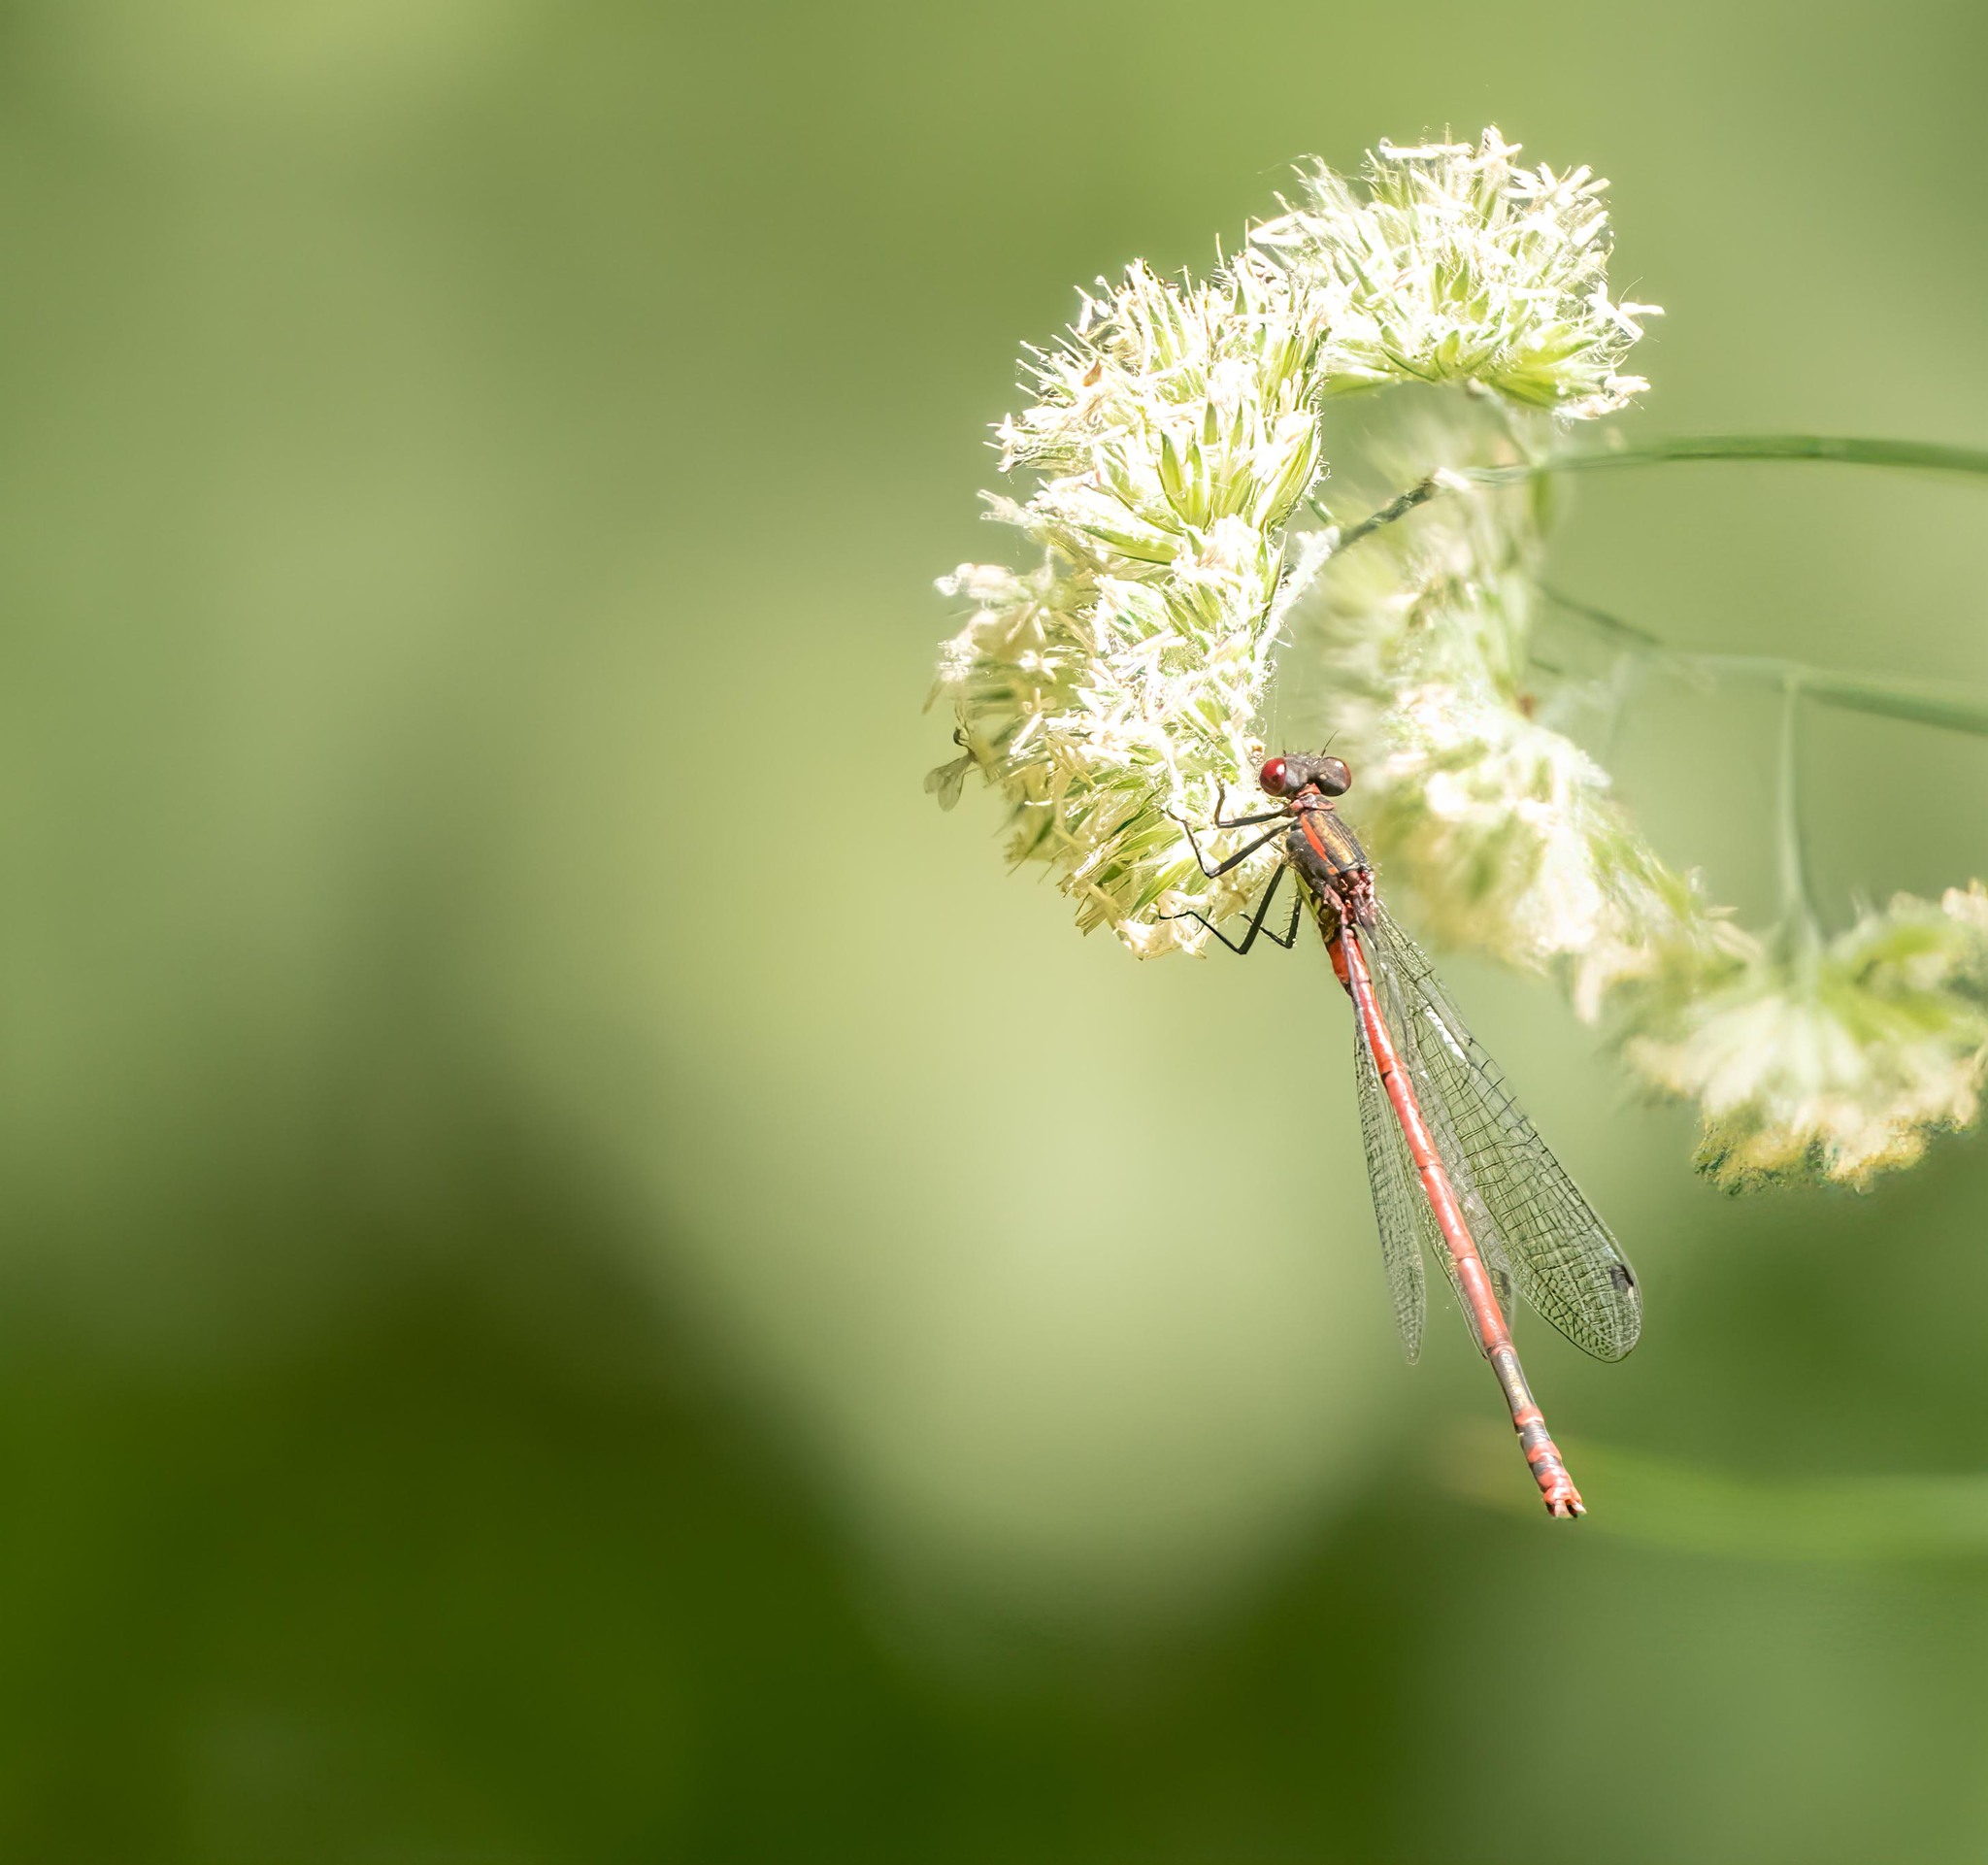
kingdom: Animalia
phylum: Arthropoda
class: Insecta
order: Odonata
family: Coenagrionidae
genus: Pyrrhosoma
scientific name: Pyrrhosoma nymphula
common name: Large red damsel
